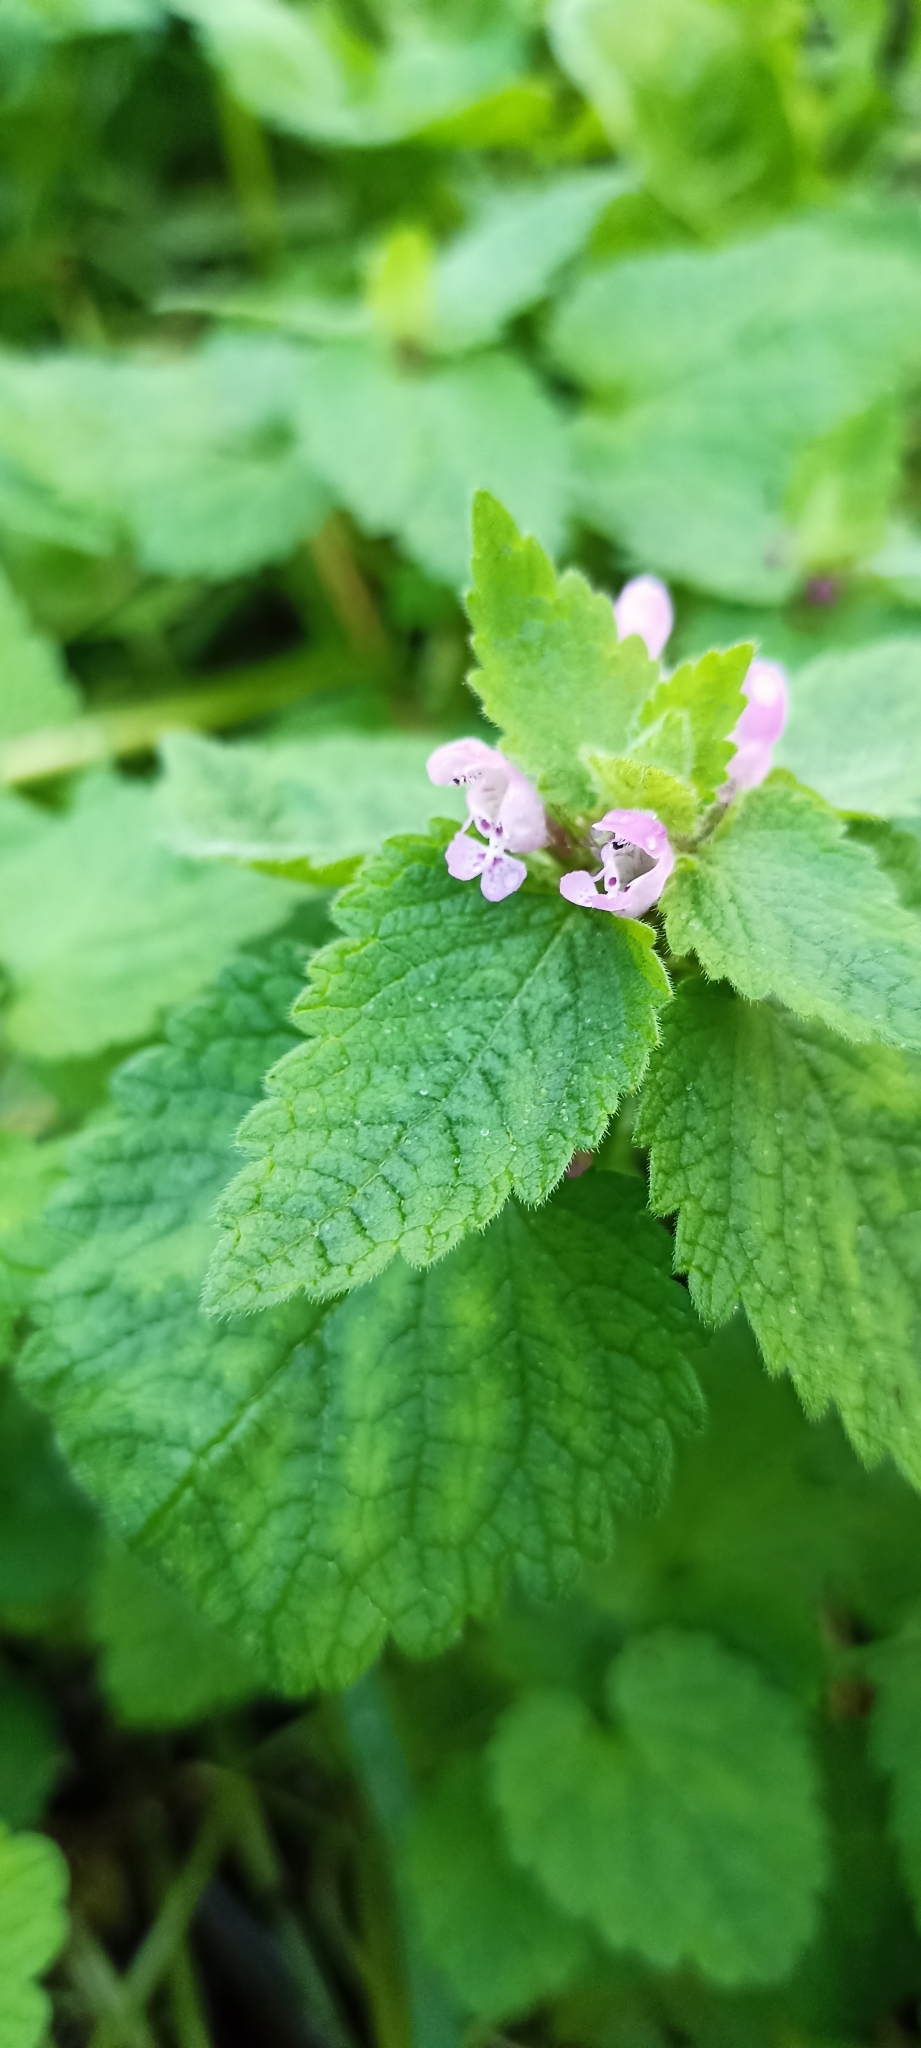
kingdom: Plantae
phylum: Tracheophyta
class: Magnoliopsida
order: Lamiales
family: Lamiaceae
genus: Lamium
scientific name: Lamium purpureum
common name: Red dead-nettle
